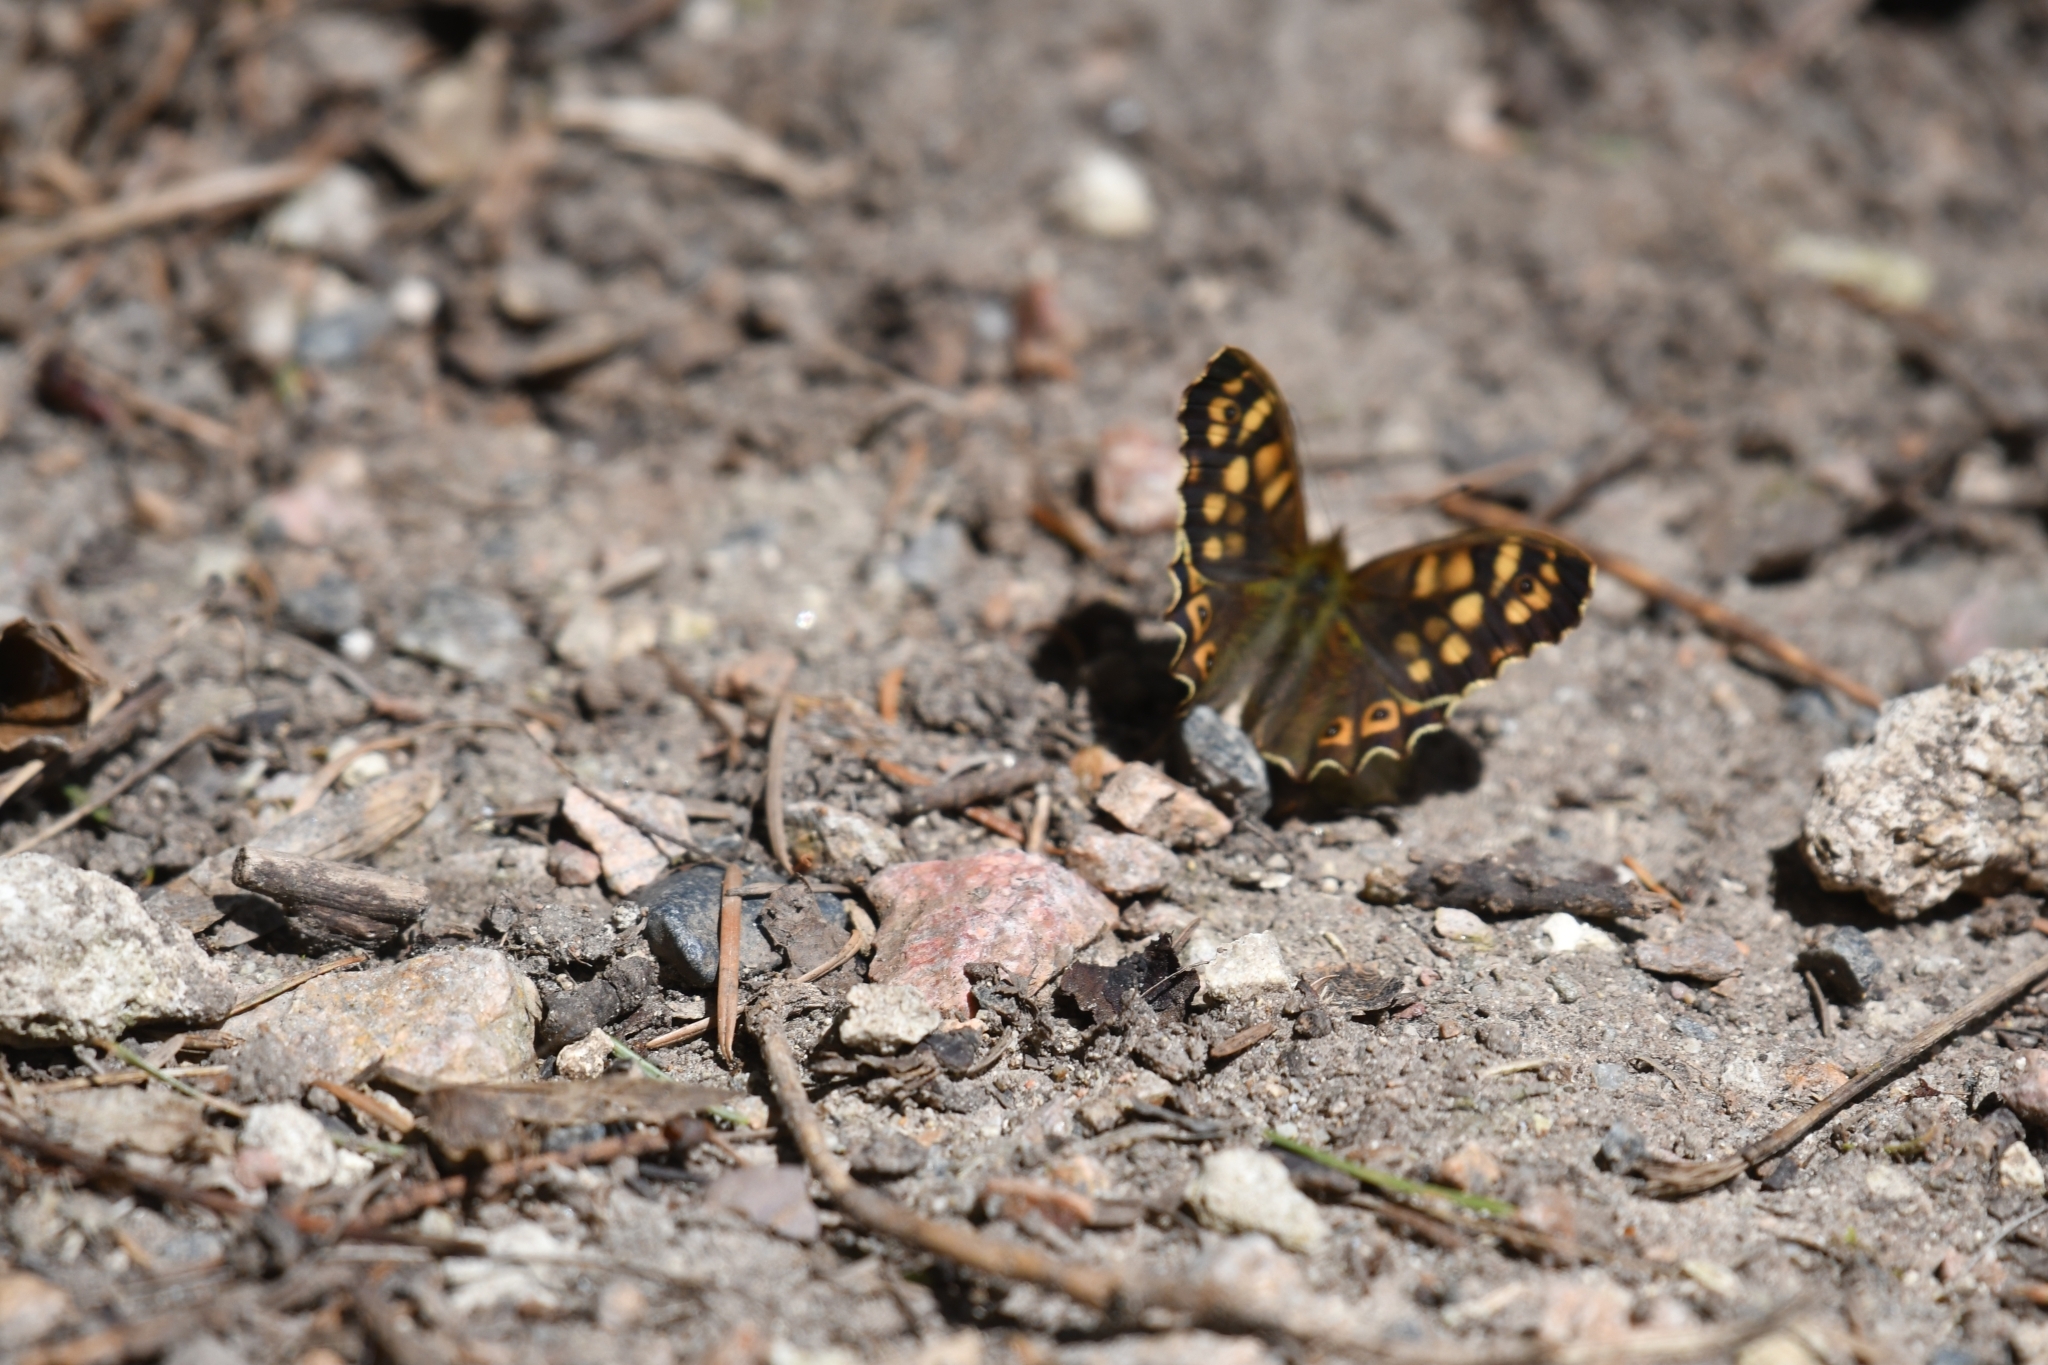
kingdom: Animalia
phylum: Arthropoda
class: Insecta
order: Lepidoptera
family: Nymphalidae
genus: Pararge
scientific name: Pararge aegeria
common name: Speckled wood
